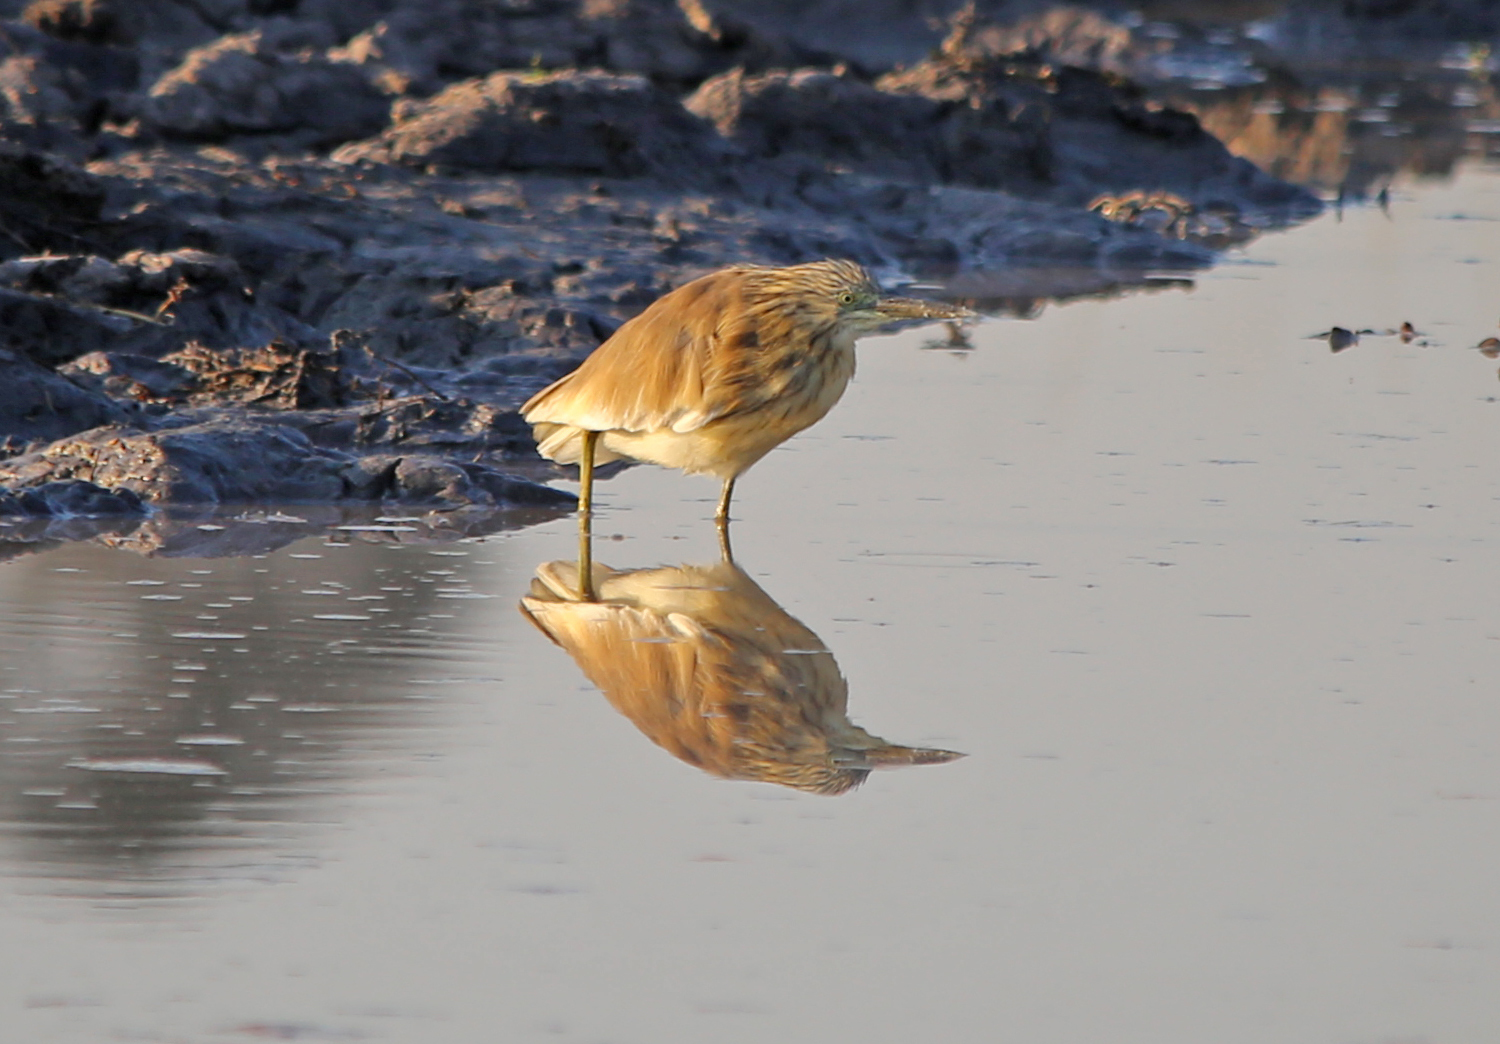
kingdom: Animalia
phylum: Chordata
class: Aves
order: Pelecaniformes
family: Ardeidae
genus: Ardeola
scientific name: Ardeola ralloides
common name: Squacco heron
